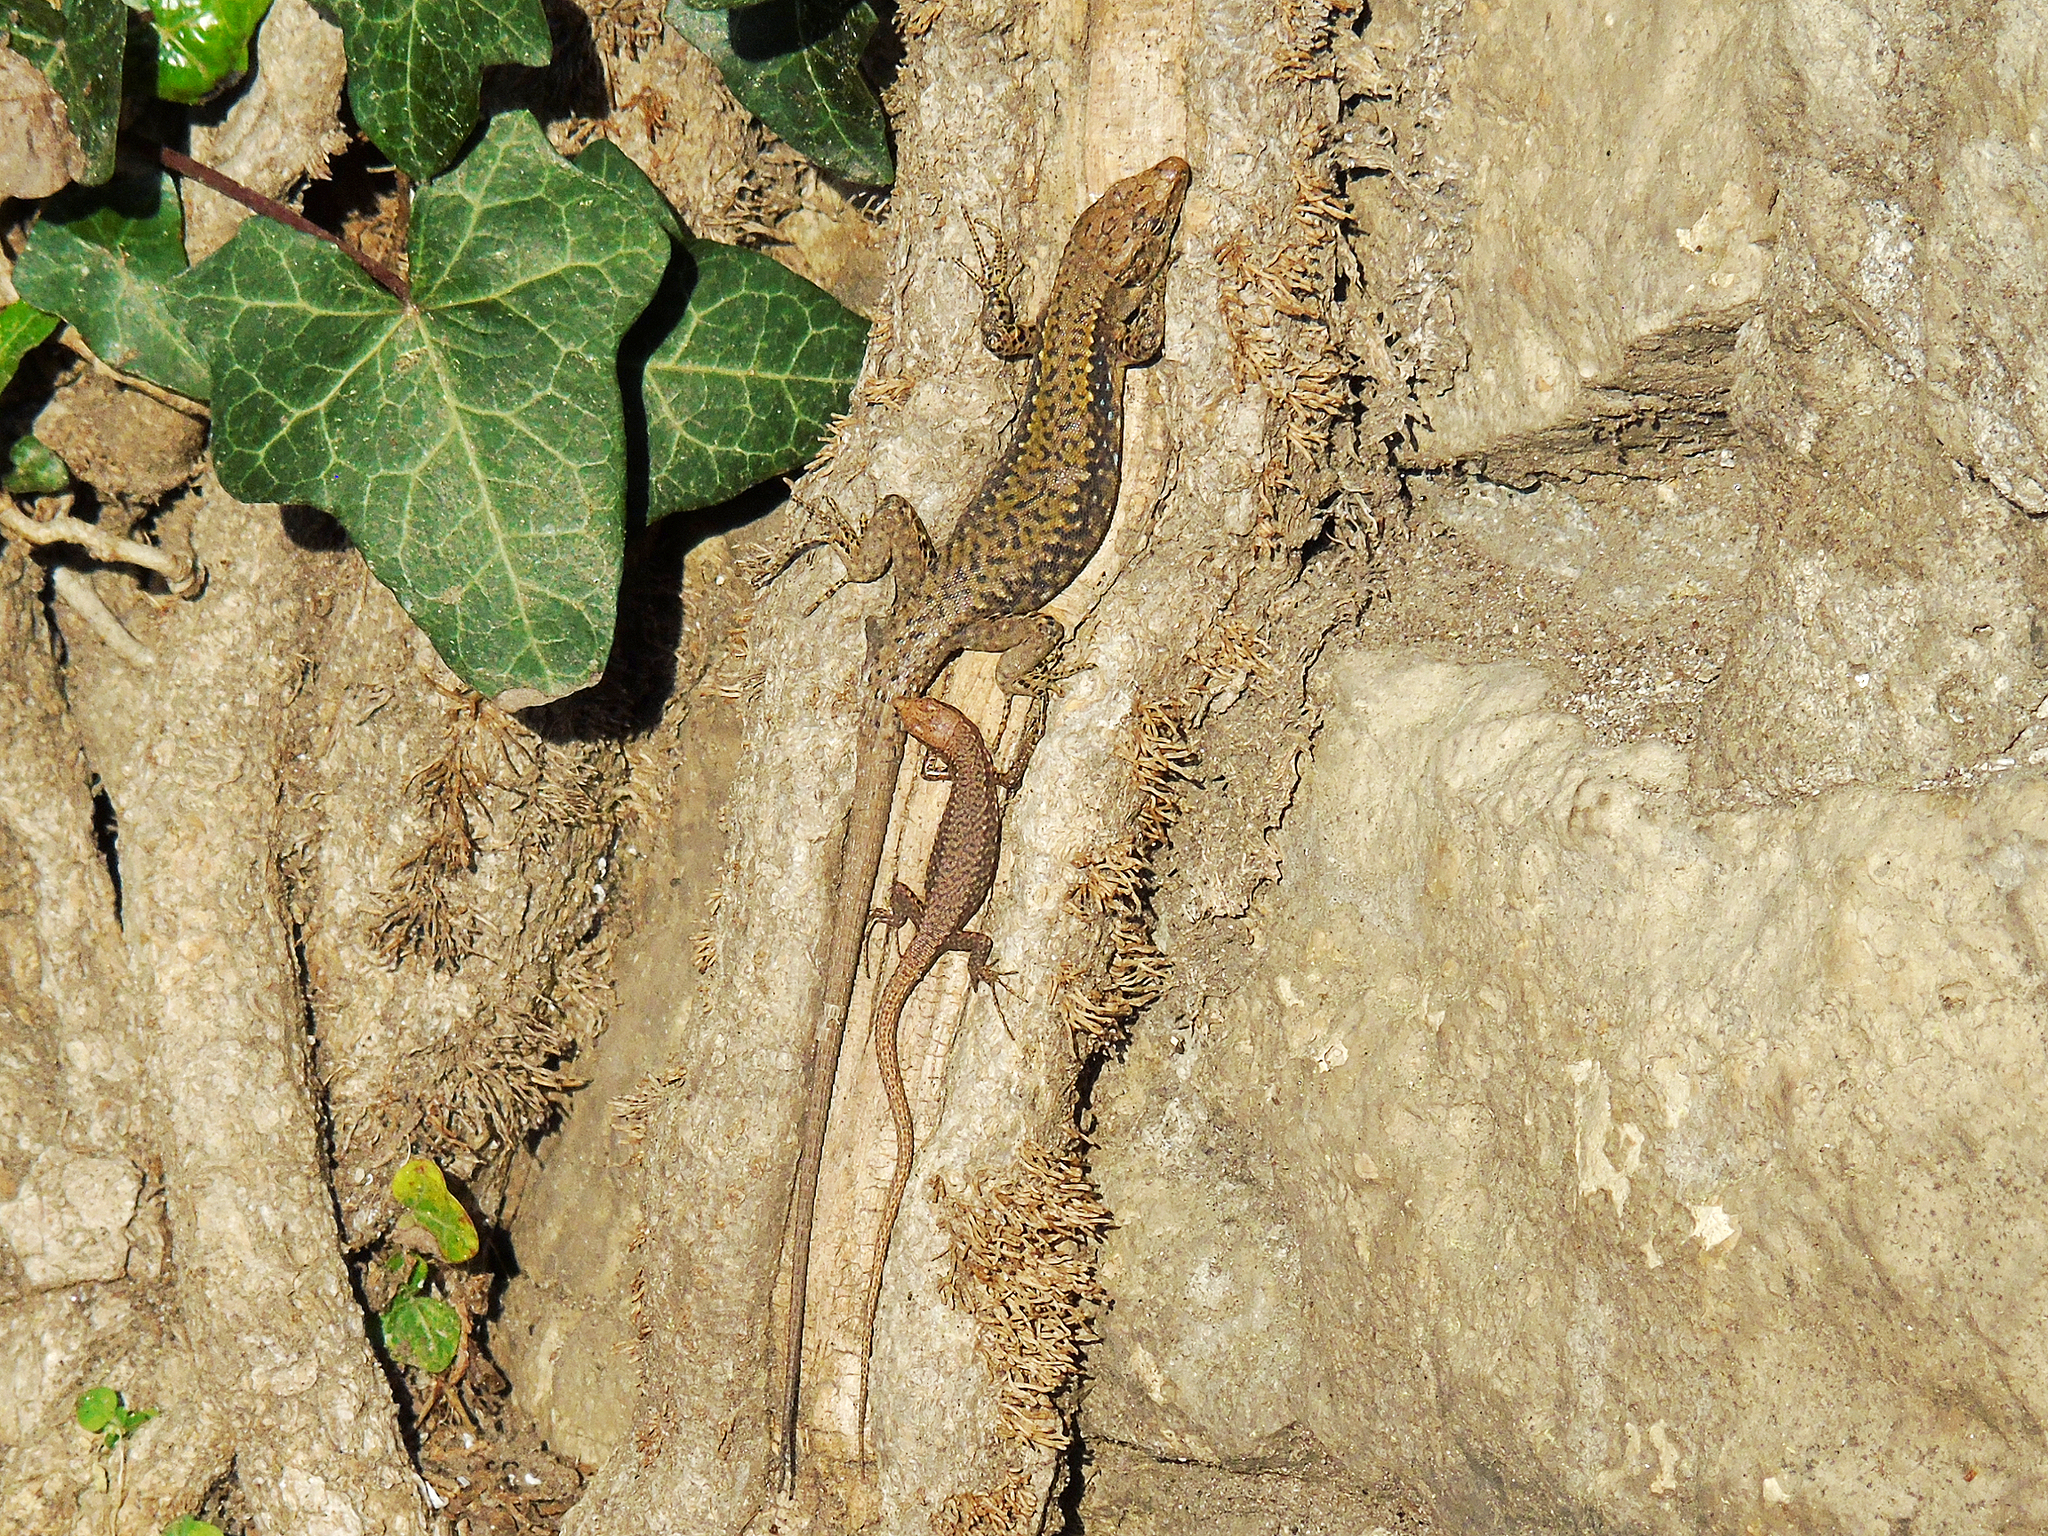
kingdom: Animalia
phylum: Chordata
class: Squamata
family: Lacertidae
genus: Darevskia
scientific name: Darevskia rudis
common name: Spiny-tailed lizard
